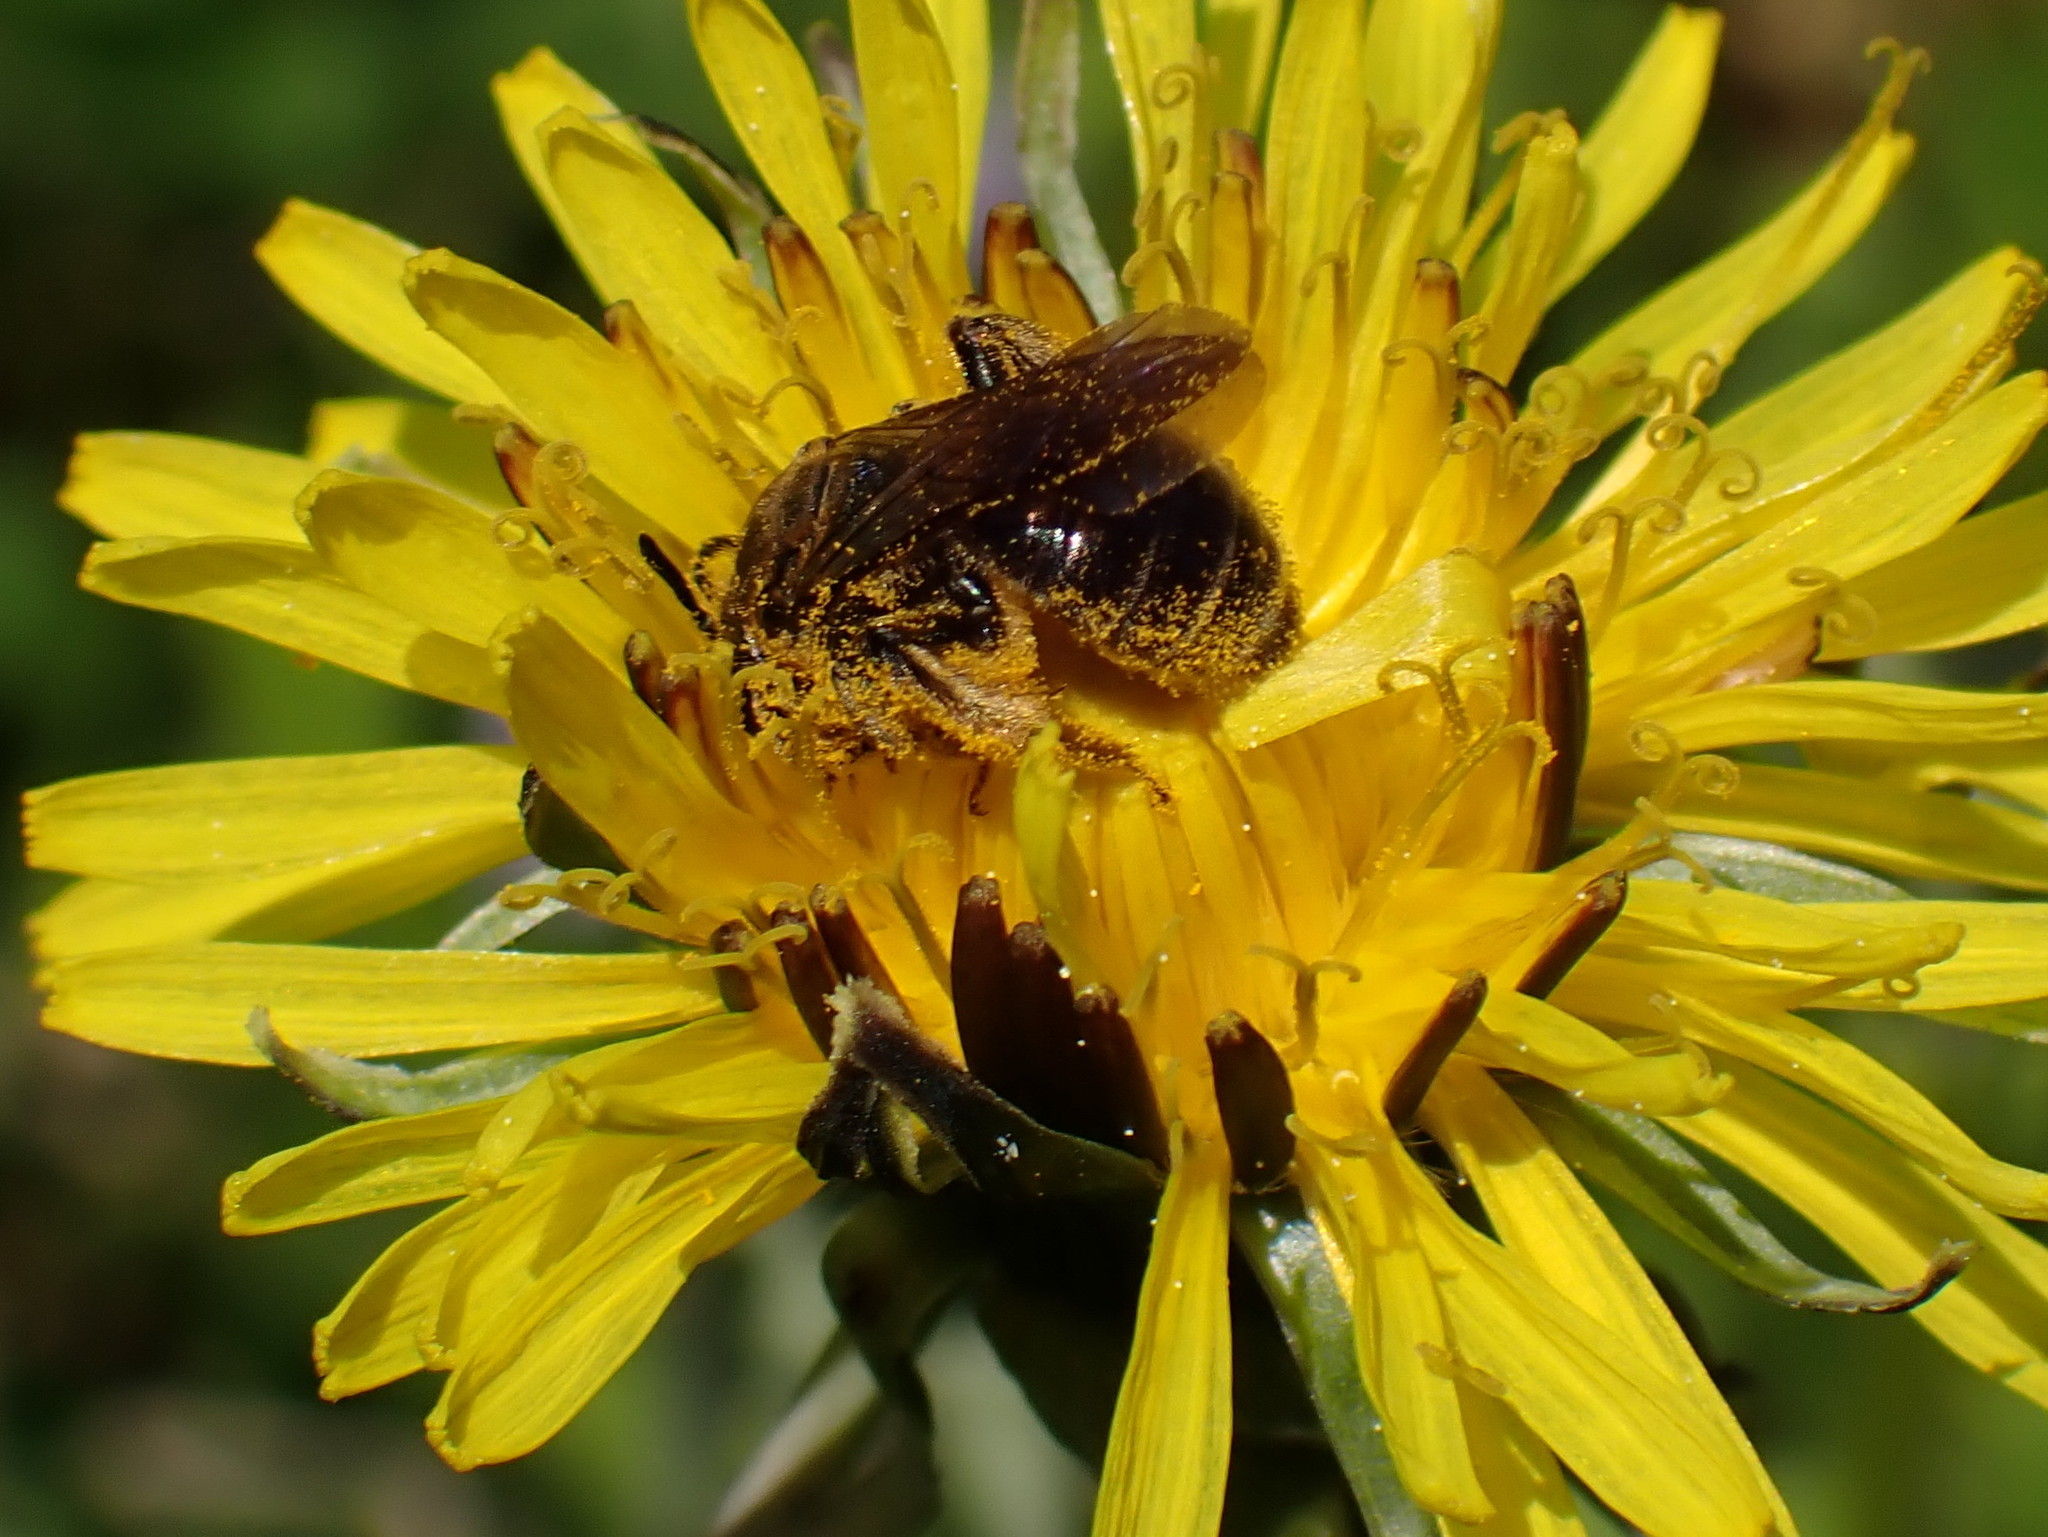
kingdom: Animalia
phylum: Arthropoda
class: Insecta
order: Hymenoptera
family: Andrenidae
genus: Andrena
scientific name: Andrena alleghaniensis
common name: Allegheny mining bee
